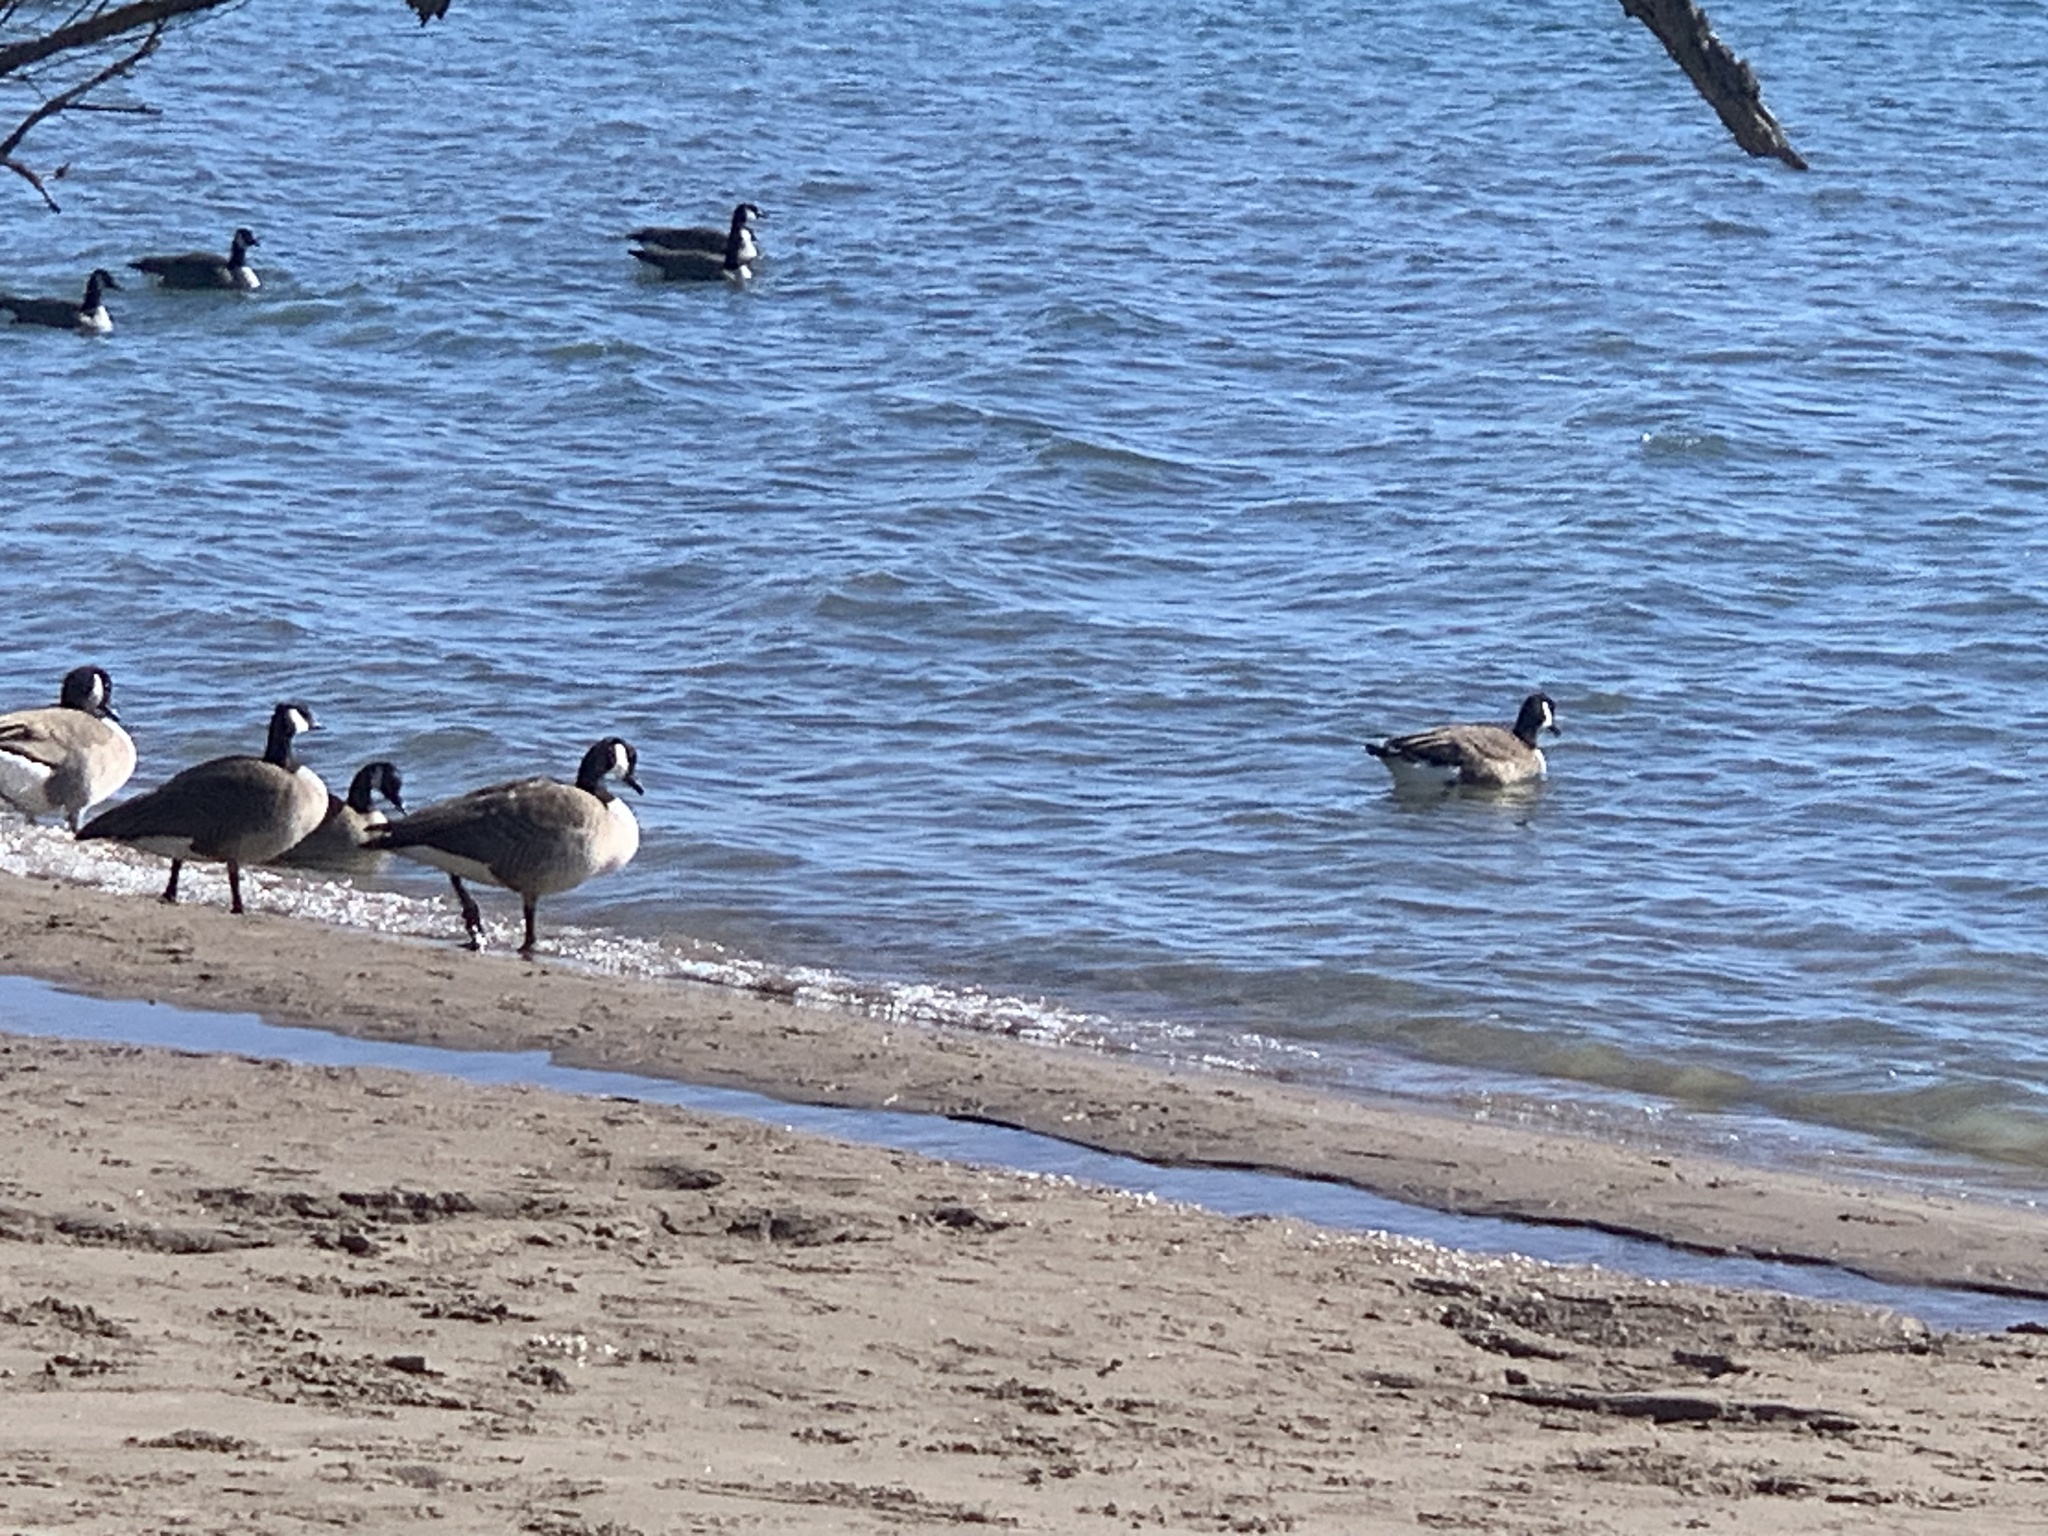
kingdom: Animalia
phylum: Chordata
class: Aves
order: Anseriformes
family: Anatidae
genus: Branta
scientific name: Branta canadensis
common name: Canada goose
